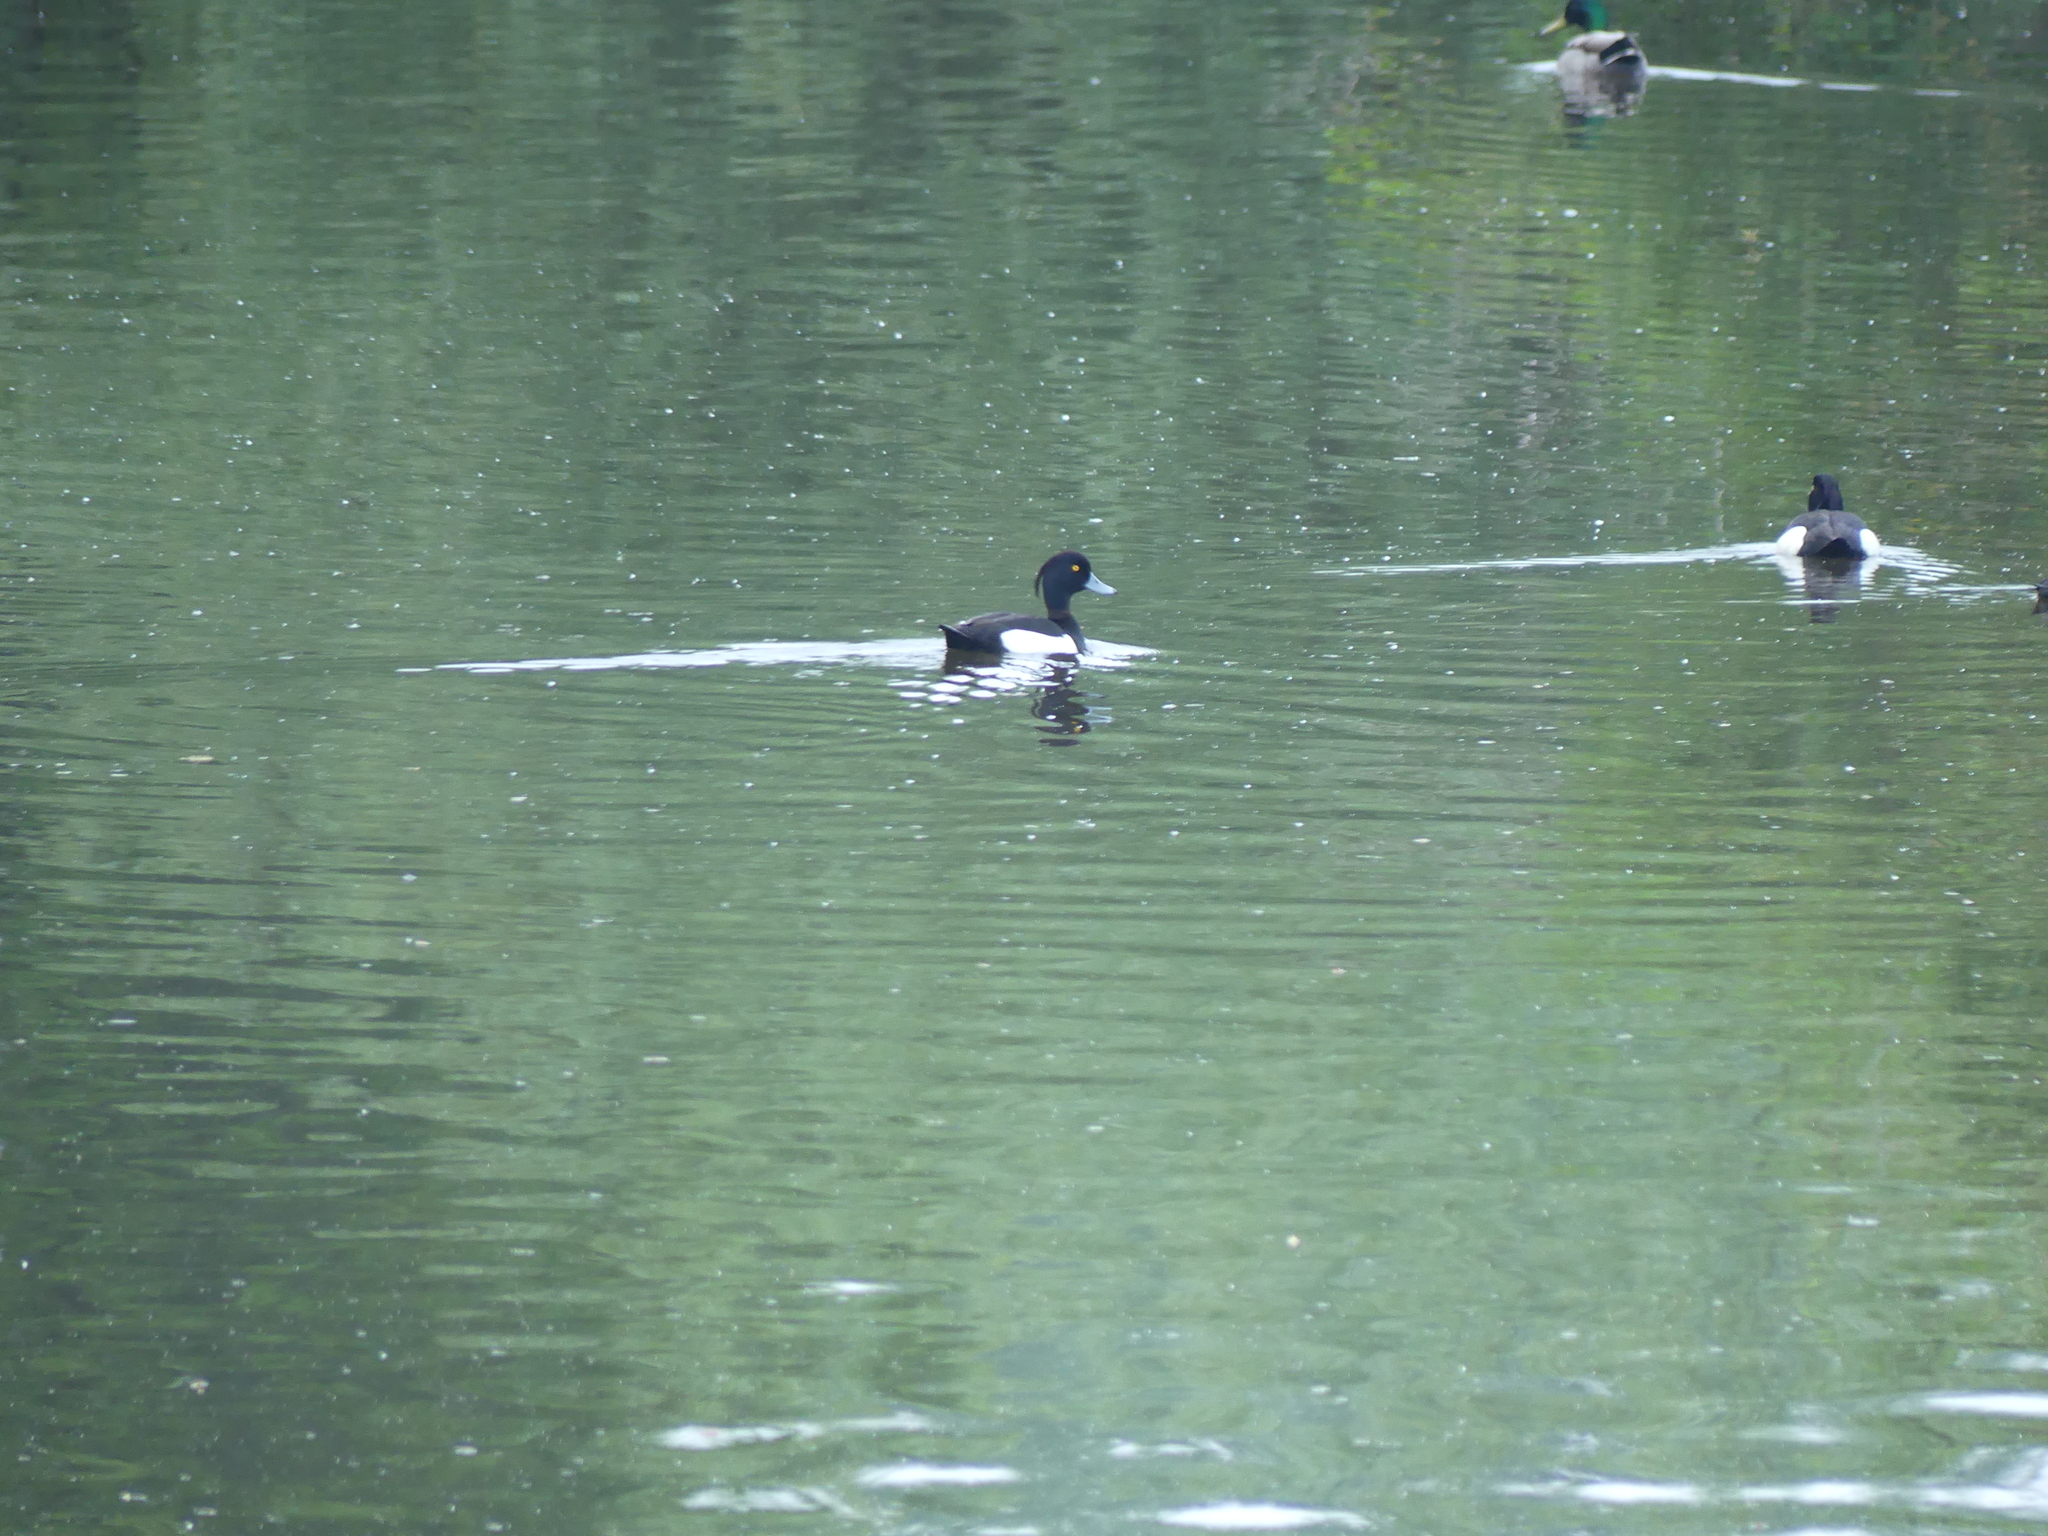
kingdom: Animalia
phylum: Chordata
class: Aves
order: Anseriformes
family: Anatidae
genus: Aythya
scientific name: Aythya fuligula
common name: Tufted duck
